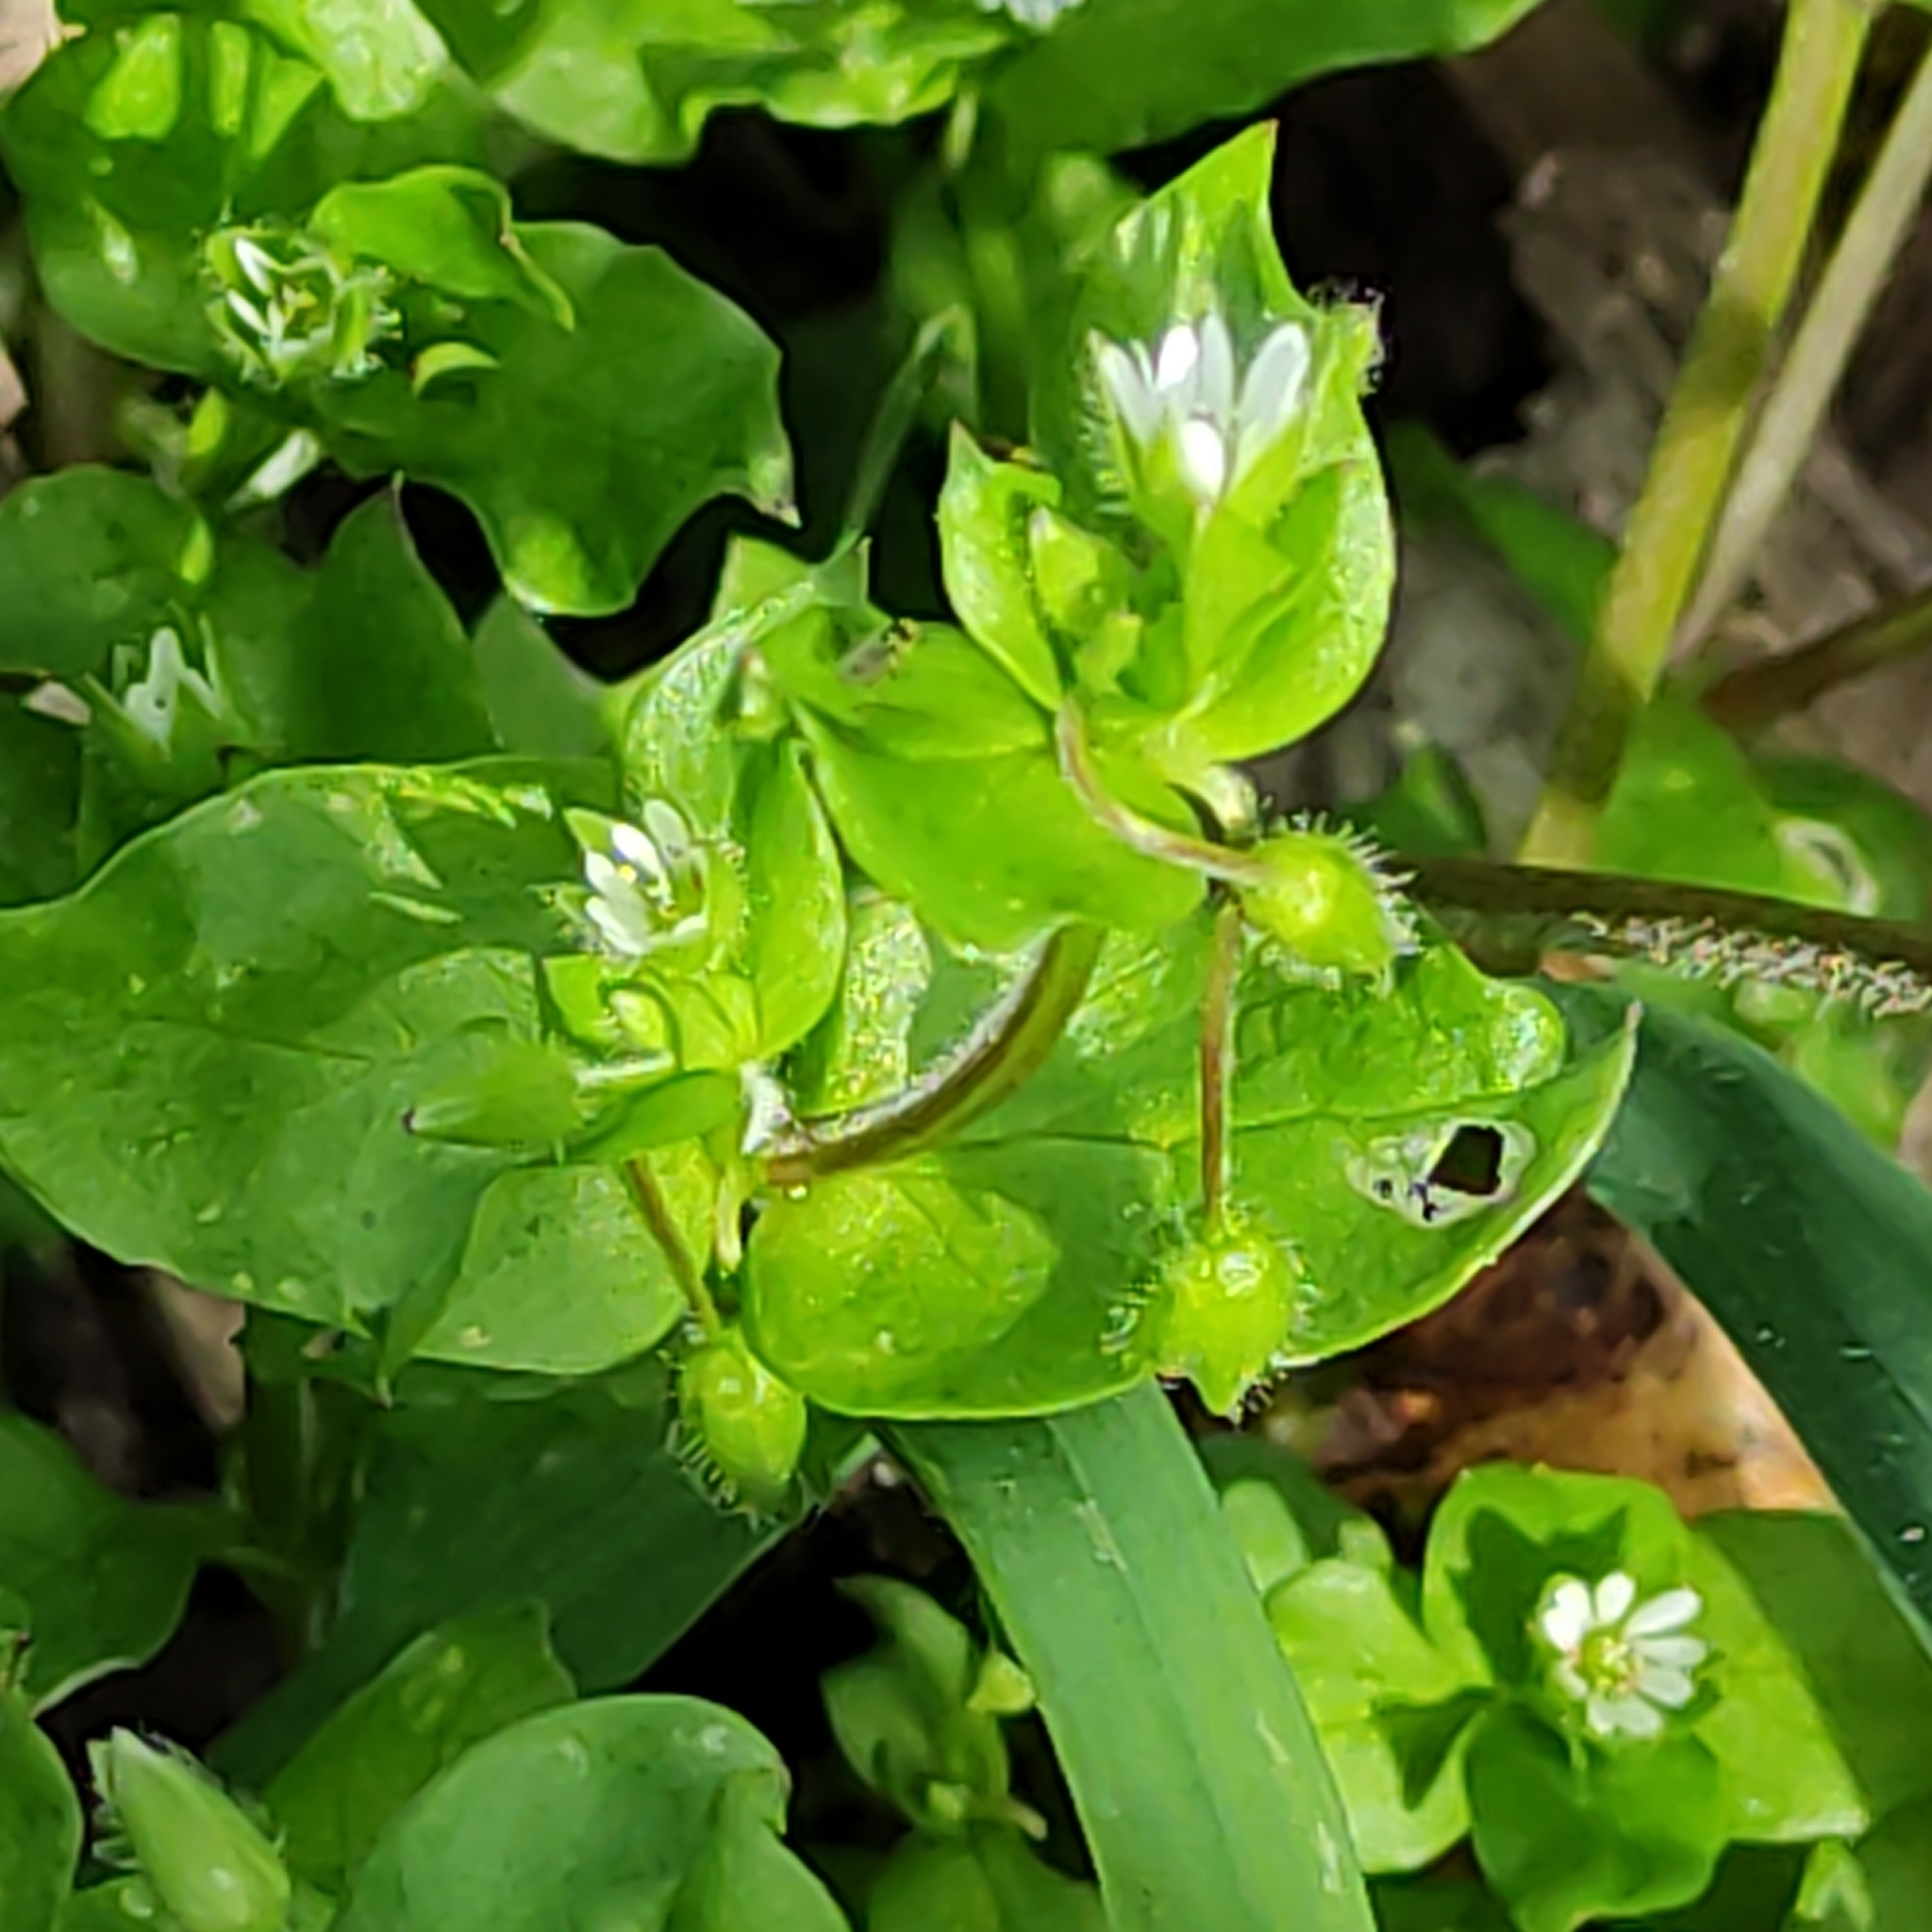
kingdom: Plantae
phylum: Tracheophyta
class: Magnoliopsida
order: Caryophyllales
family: Caryophyllaceae
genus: Stellaria
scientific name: Stellaria media
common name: Common chickweed
